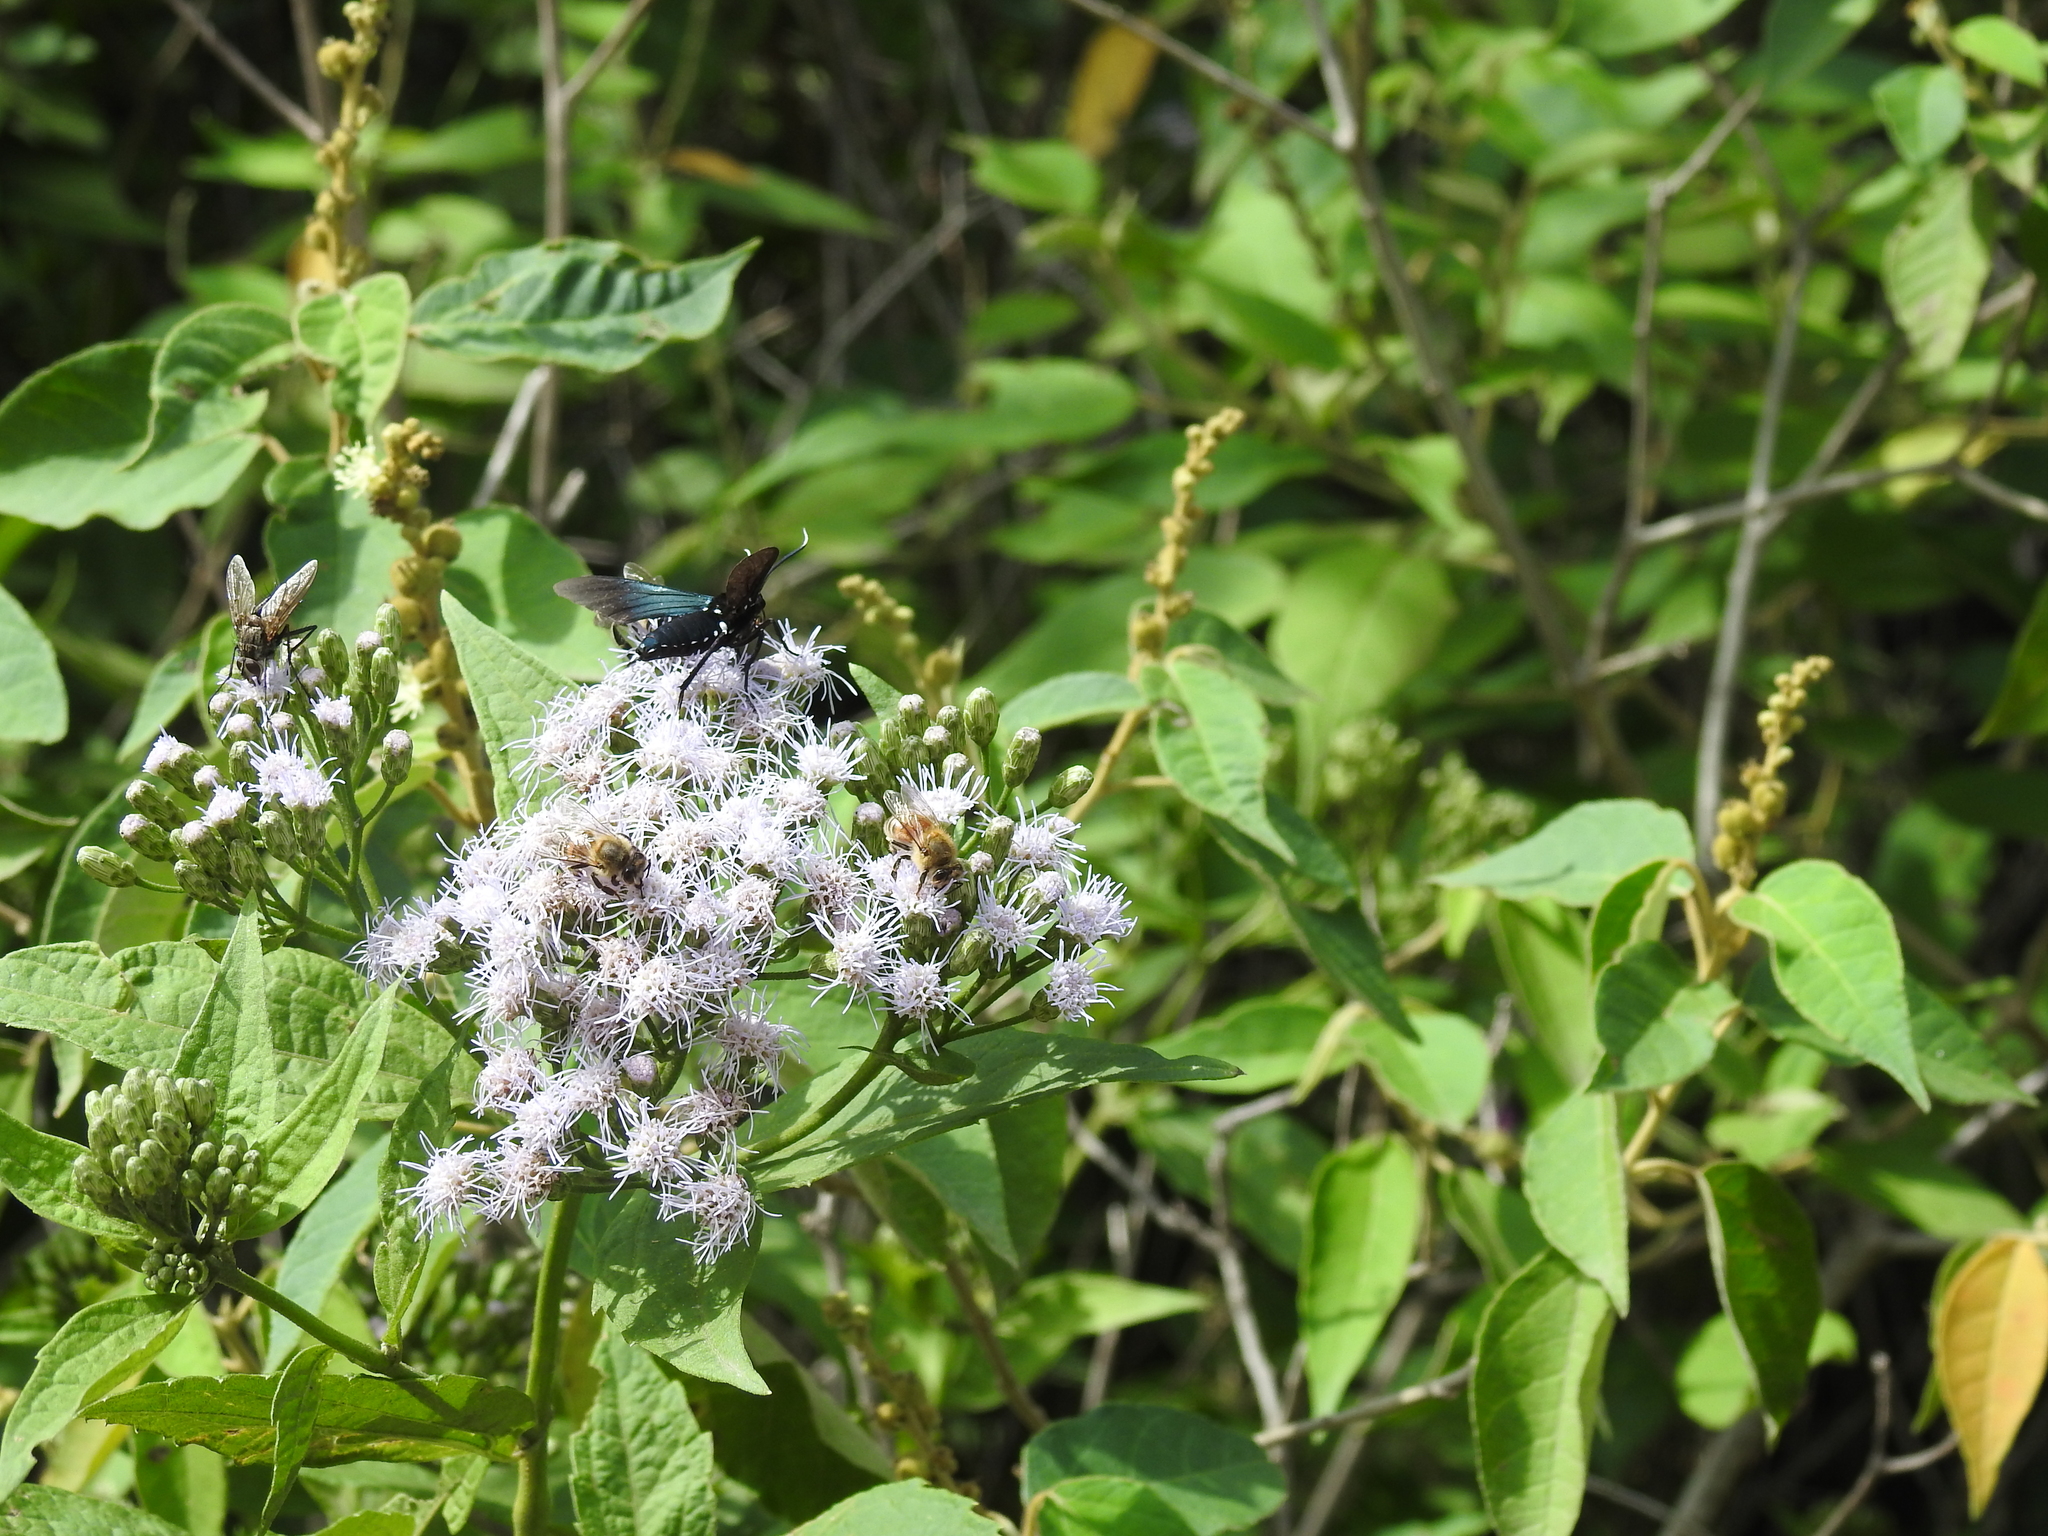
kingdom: Animalia
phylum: Arthropoda
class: Insecta
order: Hymenoptera
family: Apidae
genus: Apis
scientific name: Apis mellifera
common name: Honey bee
